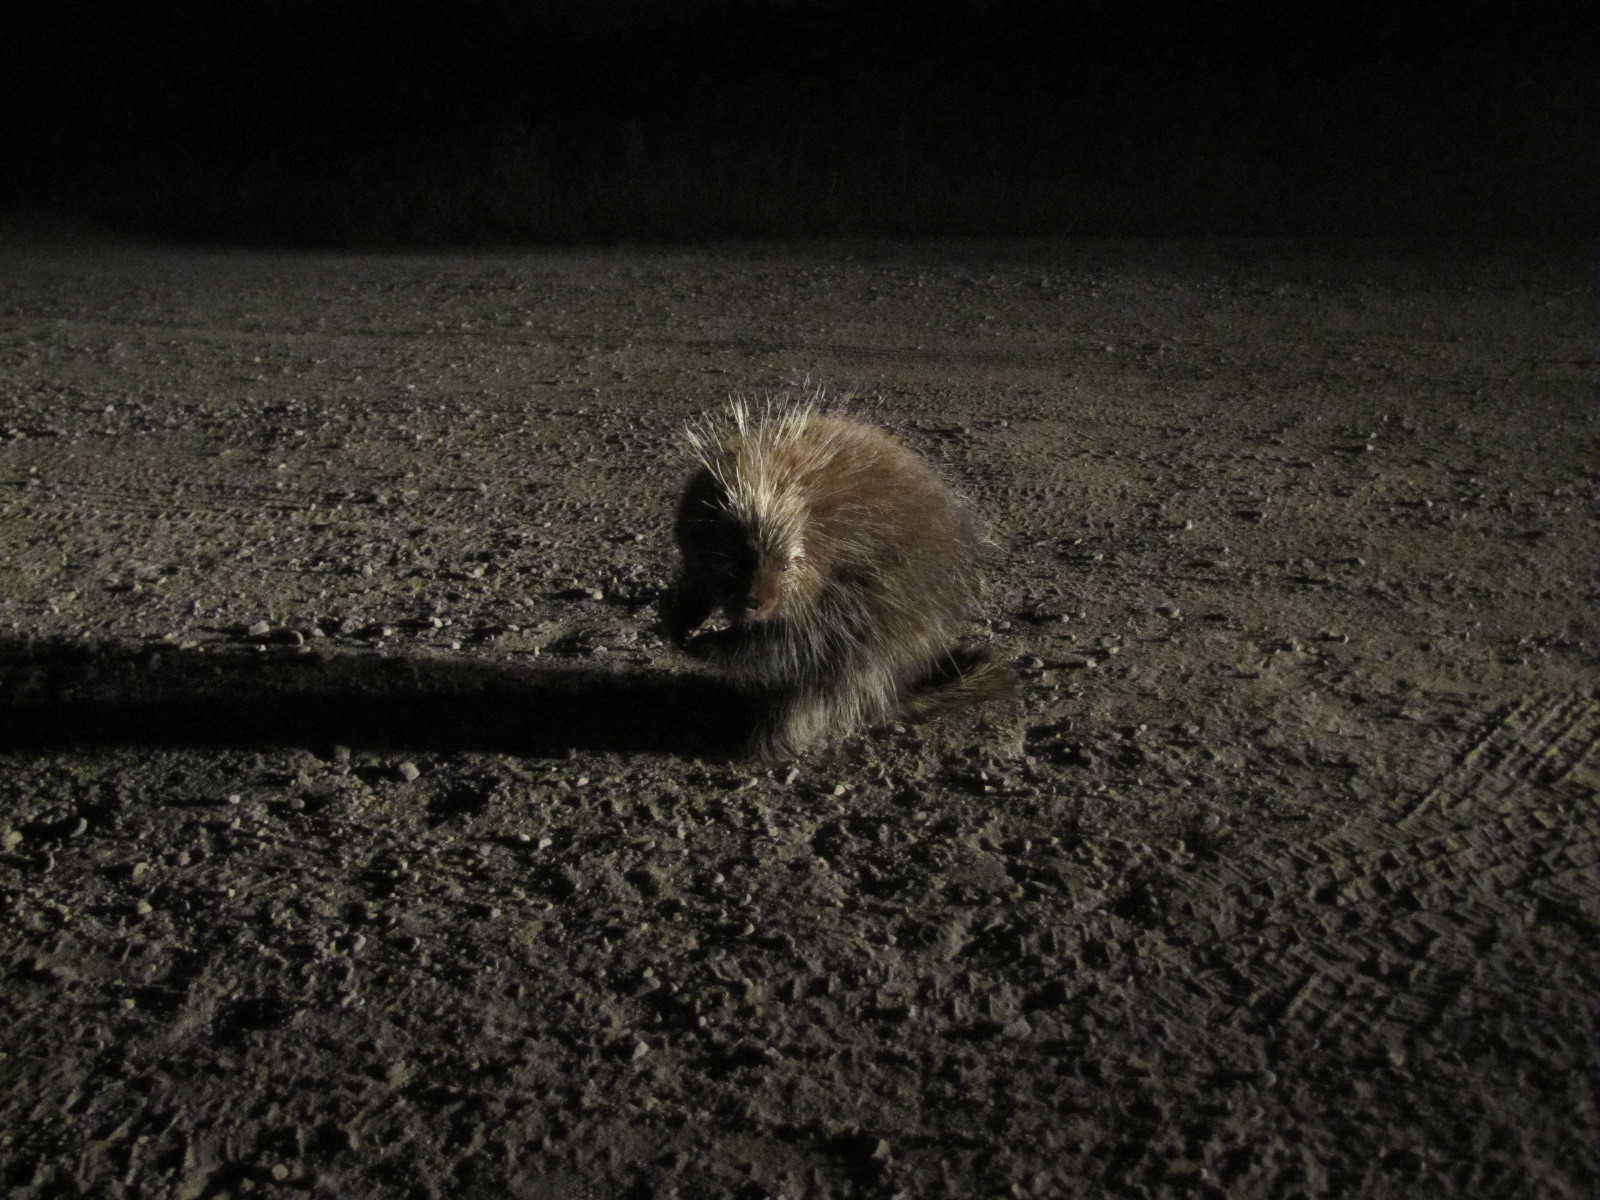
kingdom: Animalia
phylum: Chordata
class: Mammalia
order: Rodentia
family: Erethizontidae
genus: Erethizon
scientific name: Erethizon dorsatus
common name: North american porcupine
